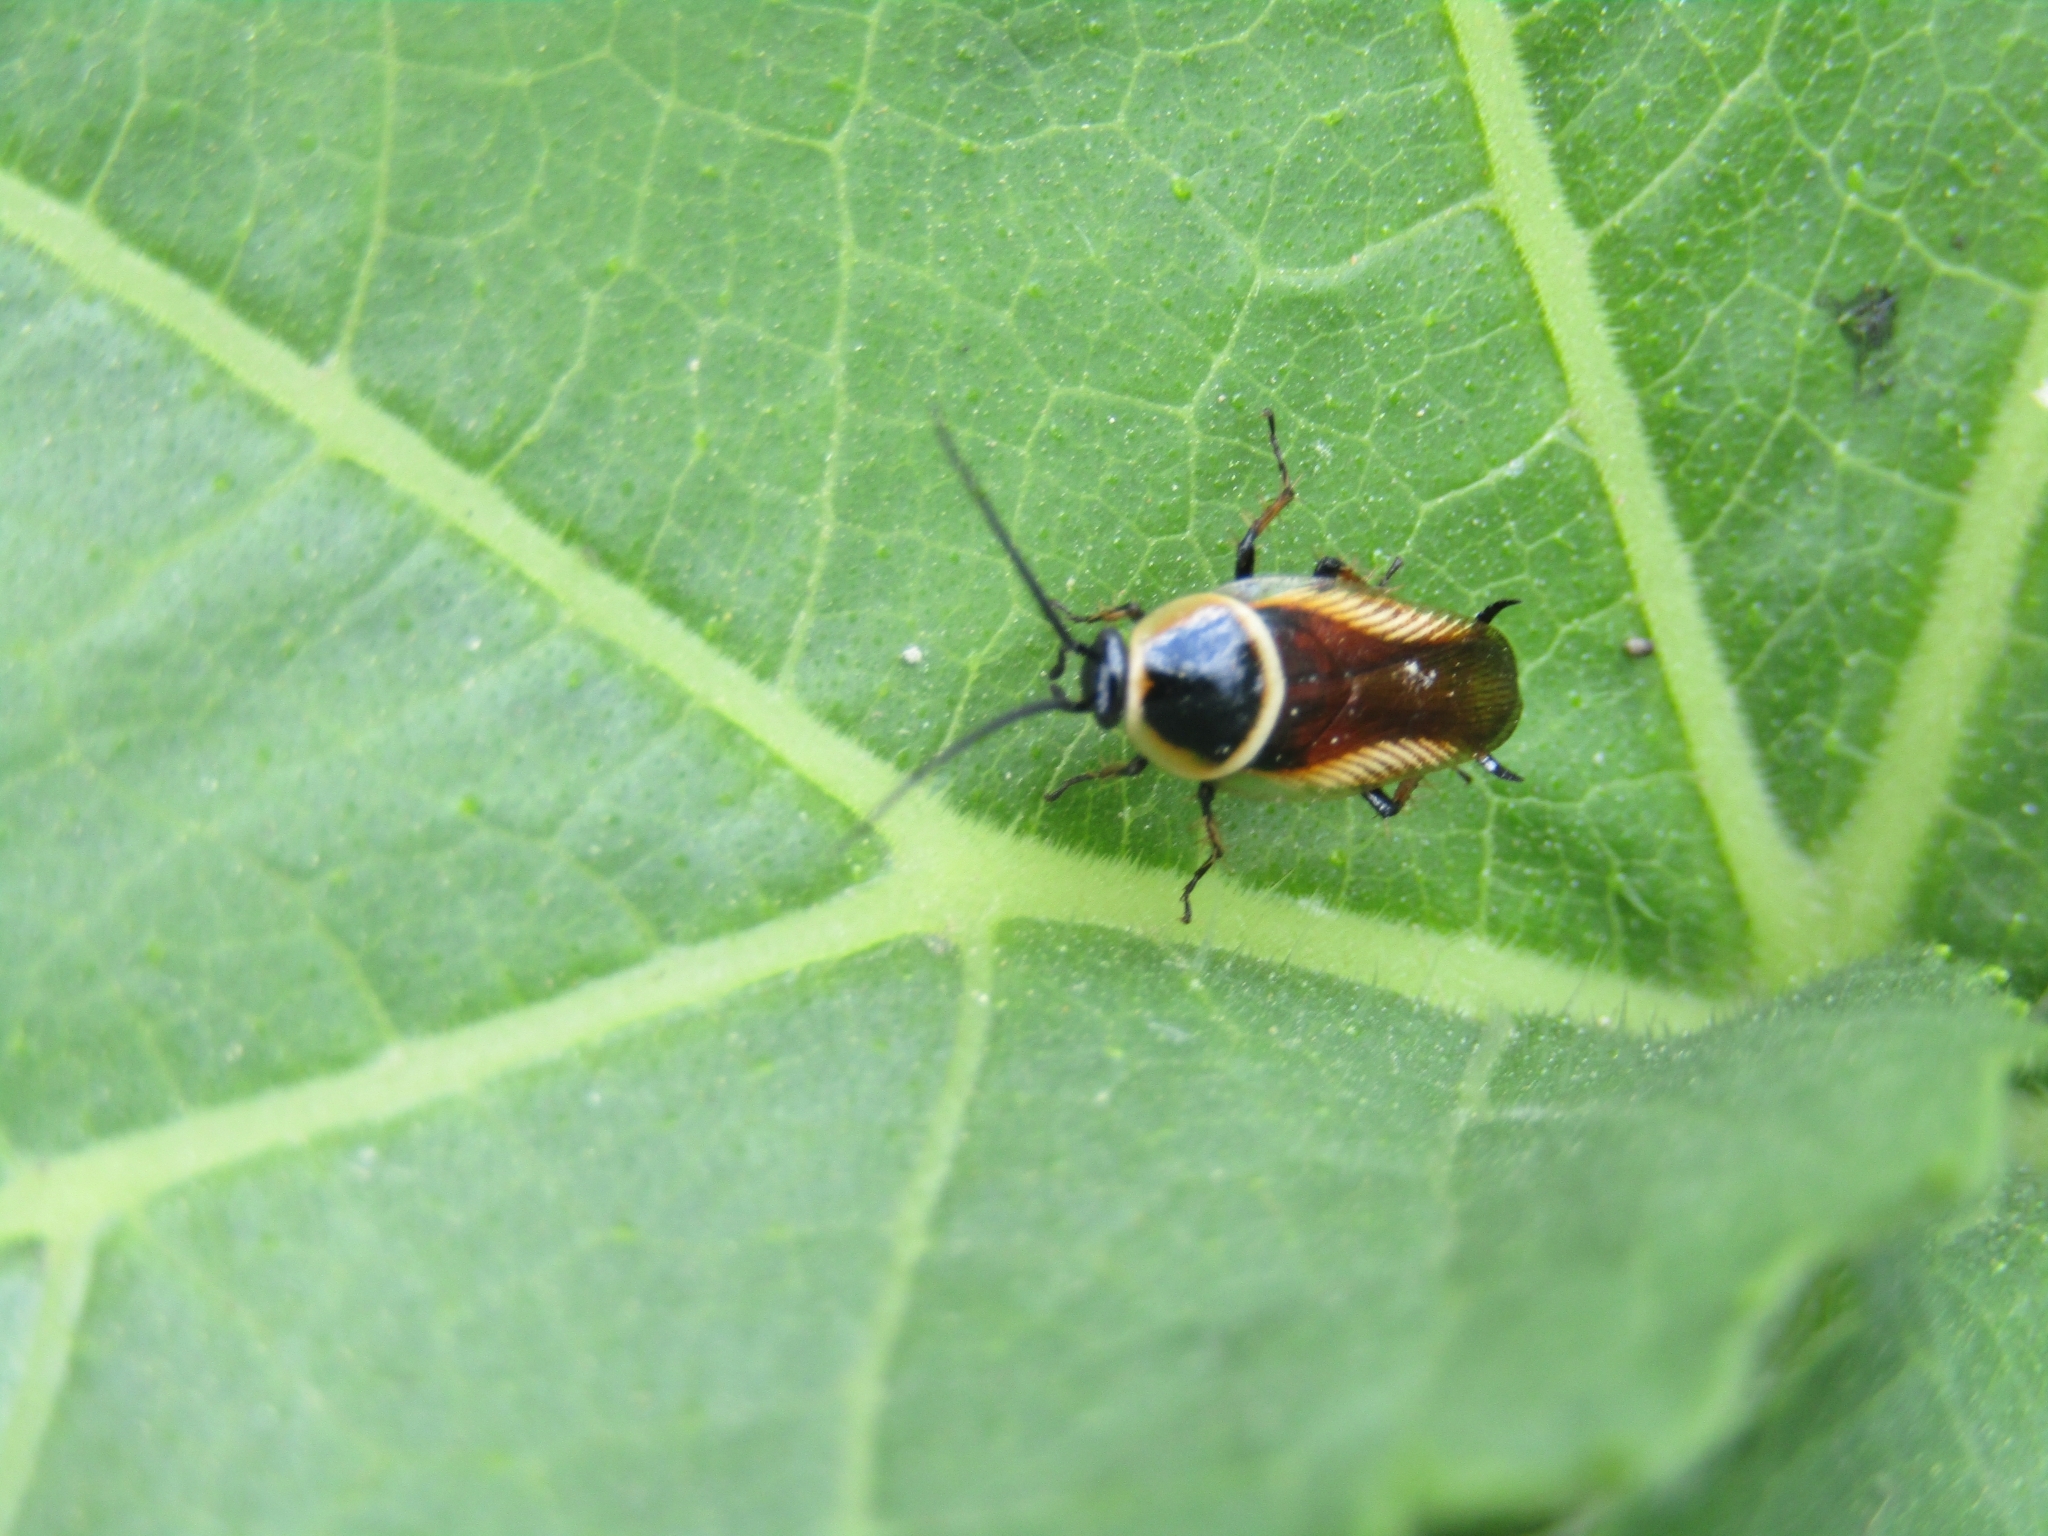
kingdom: Animalia
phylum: Arthropoda
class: Insecta
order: Blattodea
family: Ectobiidae
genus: Pseudomops
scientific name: Pseudomops neglectus
